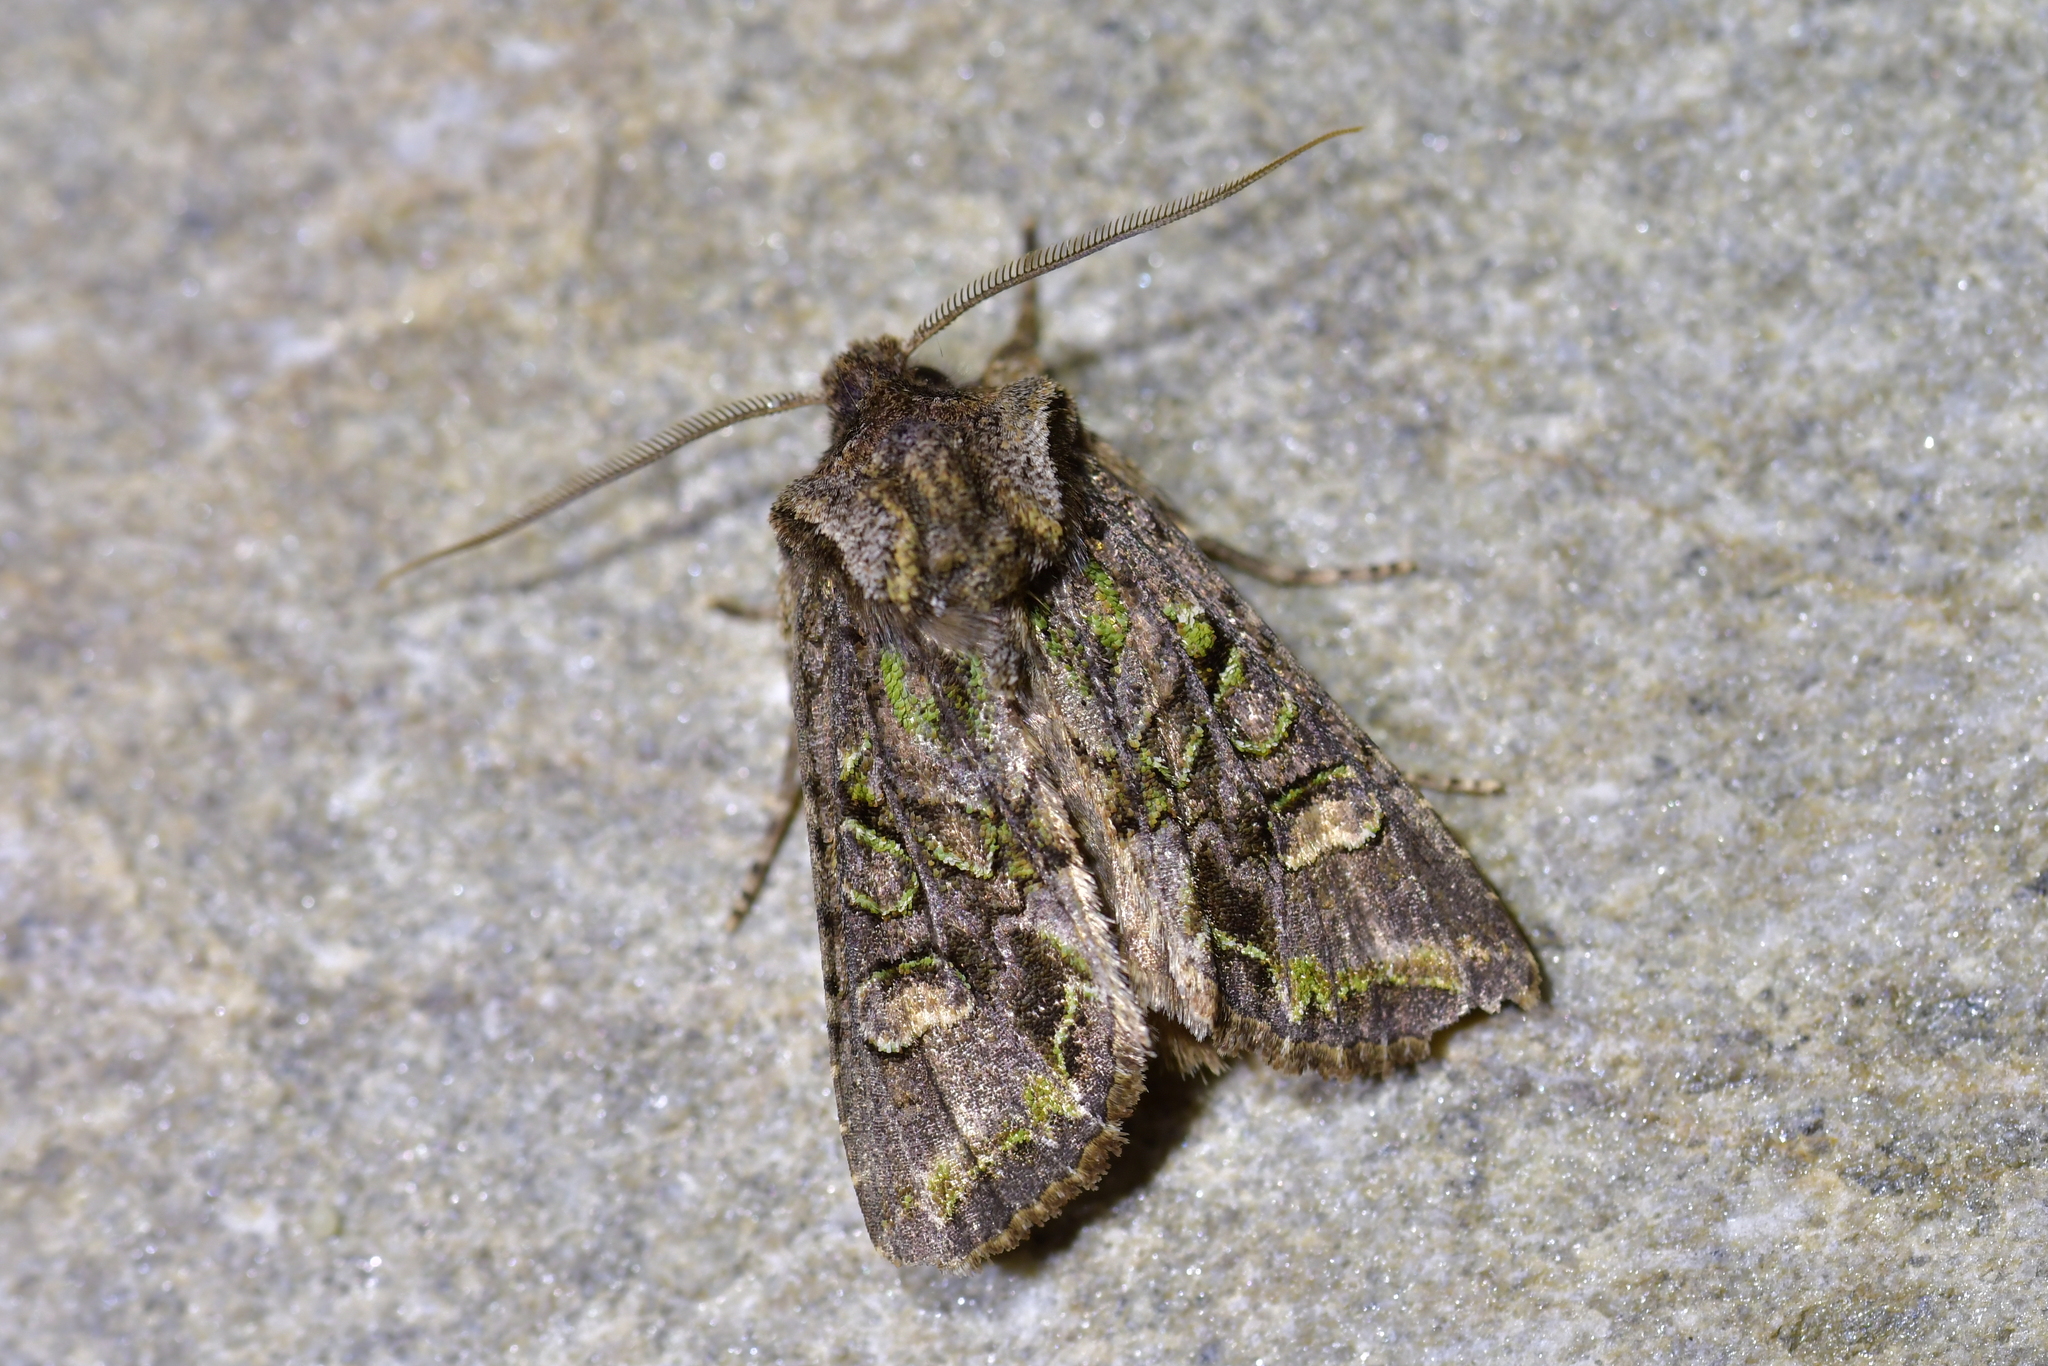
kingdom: Animalia
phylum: Arthropoda
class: Insecta
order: Lepidoptera
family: Noctuidae
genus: Ichneutica
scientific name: Ichneutica skelloni
